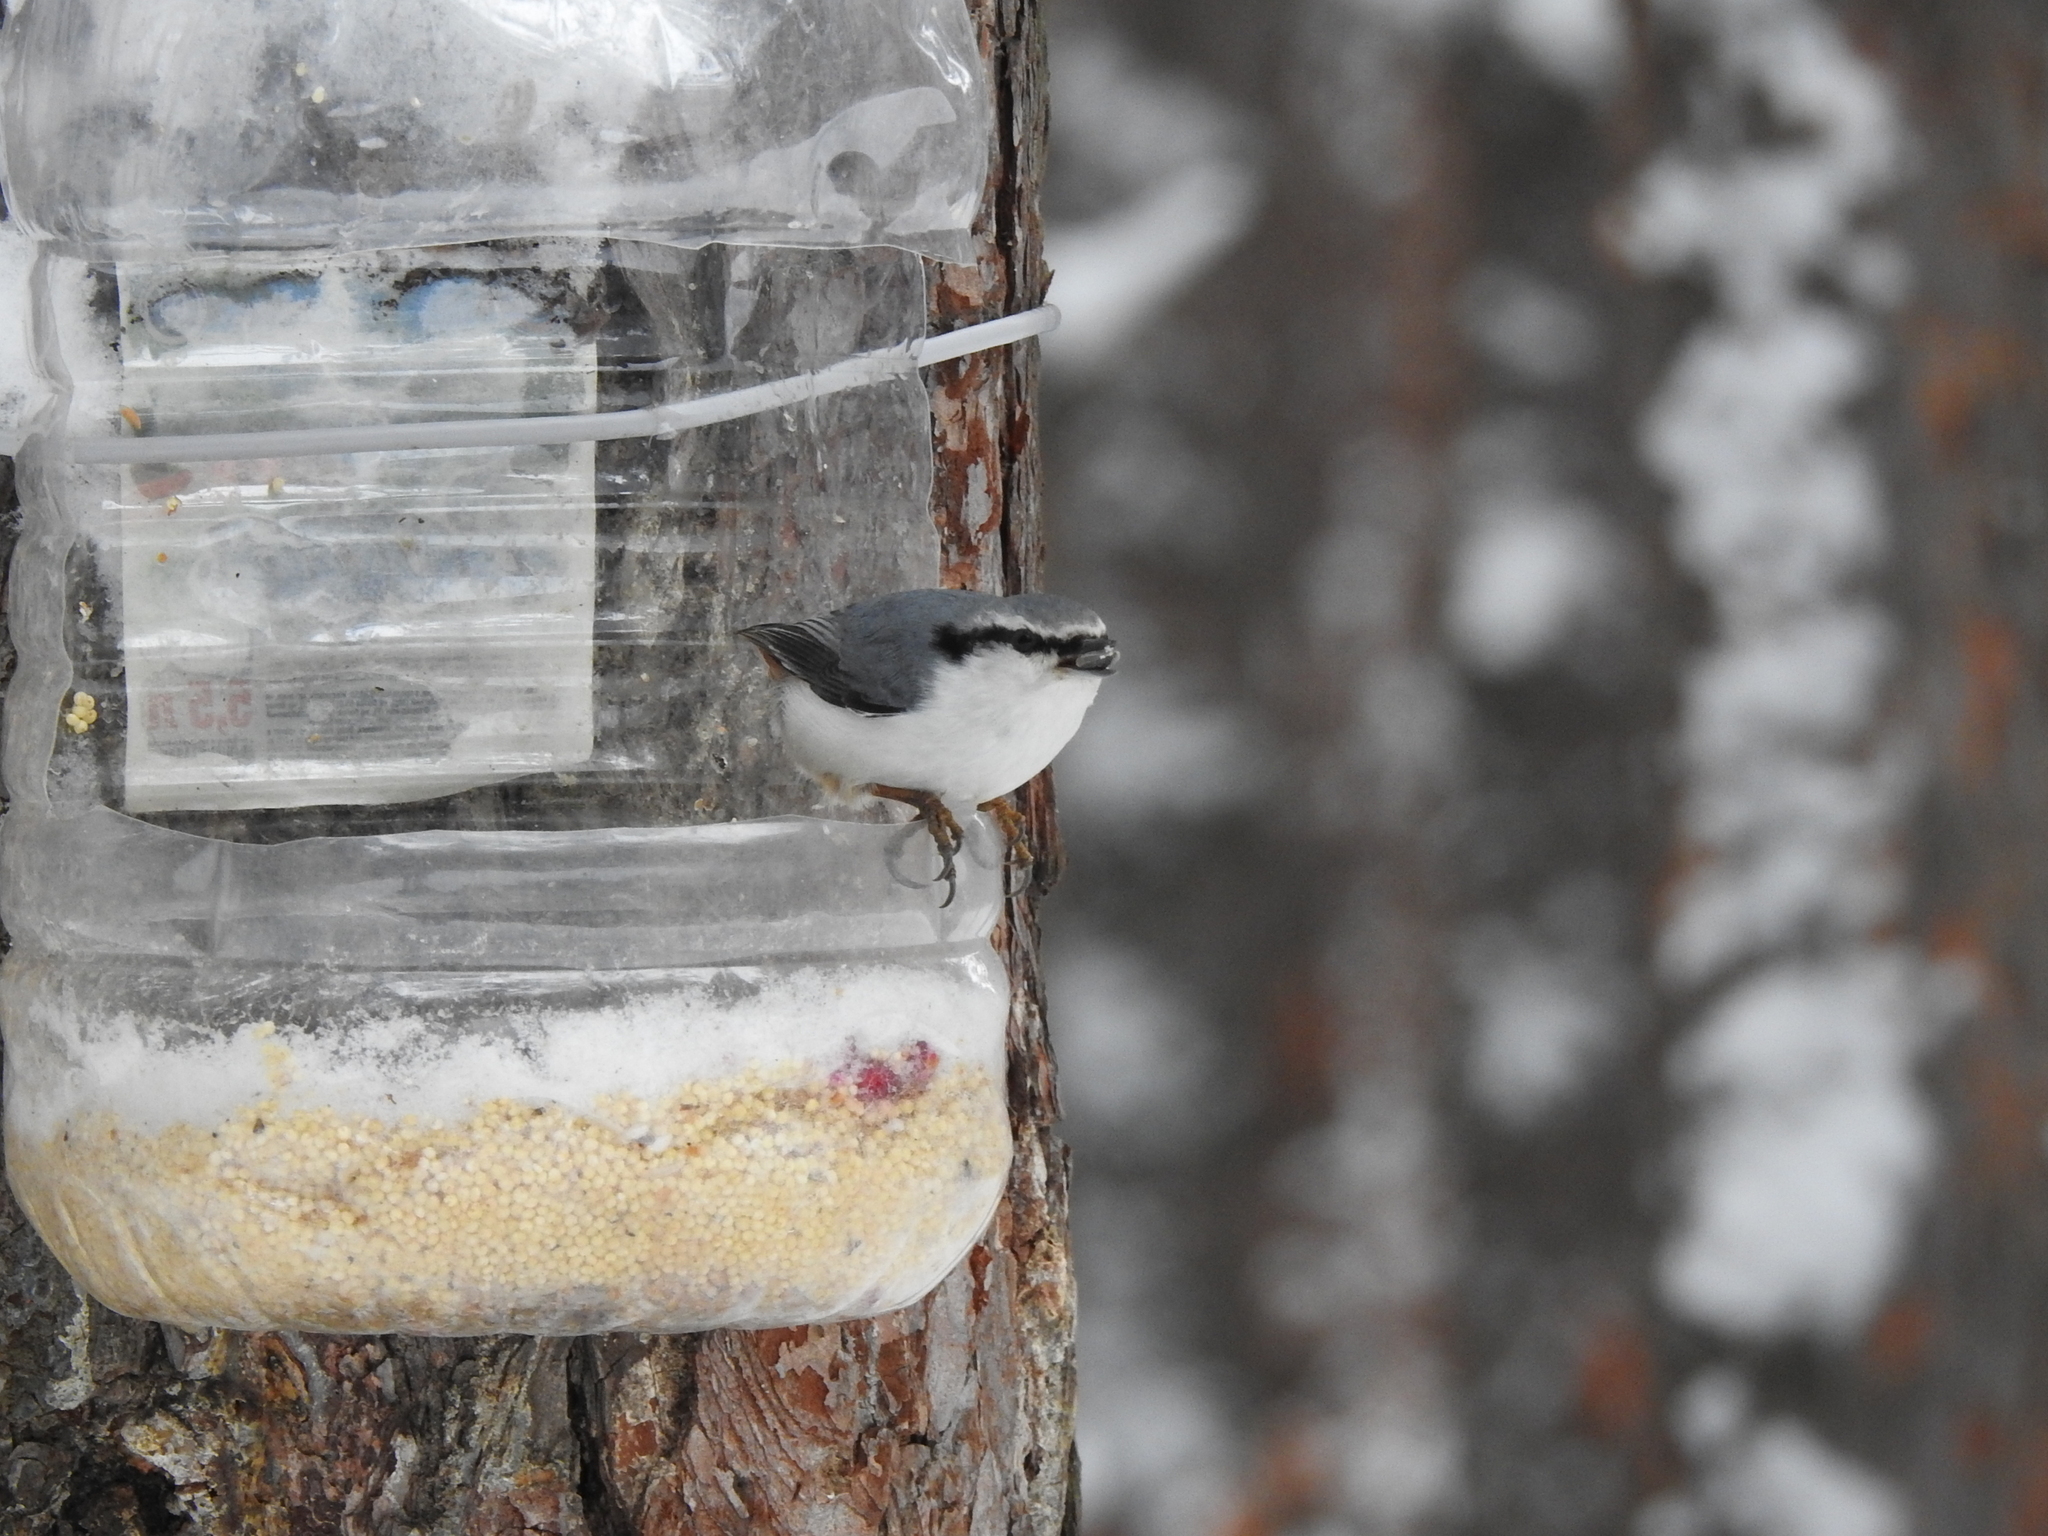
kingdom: Animalia
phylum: Chordata
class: Aves
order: Passeriformes
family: Sittidae
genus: Sitta
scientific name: Sitta europaea
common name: Eurasian nuthatch
